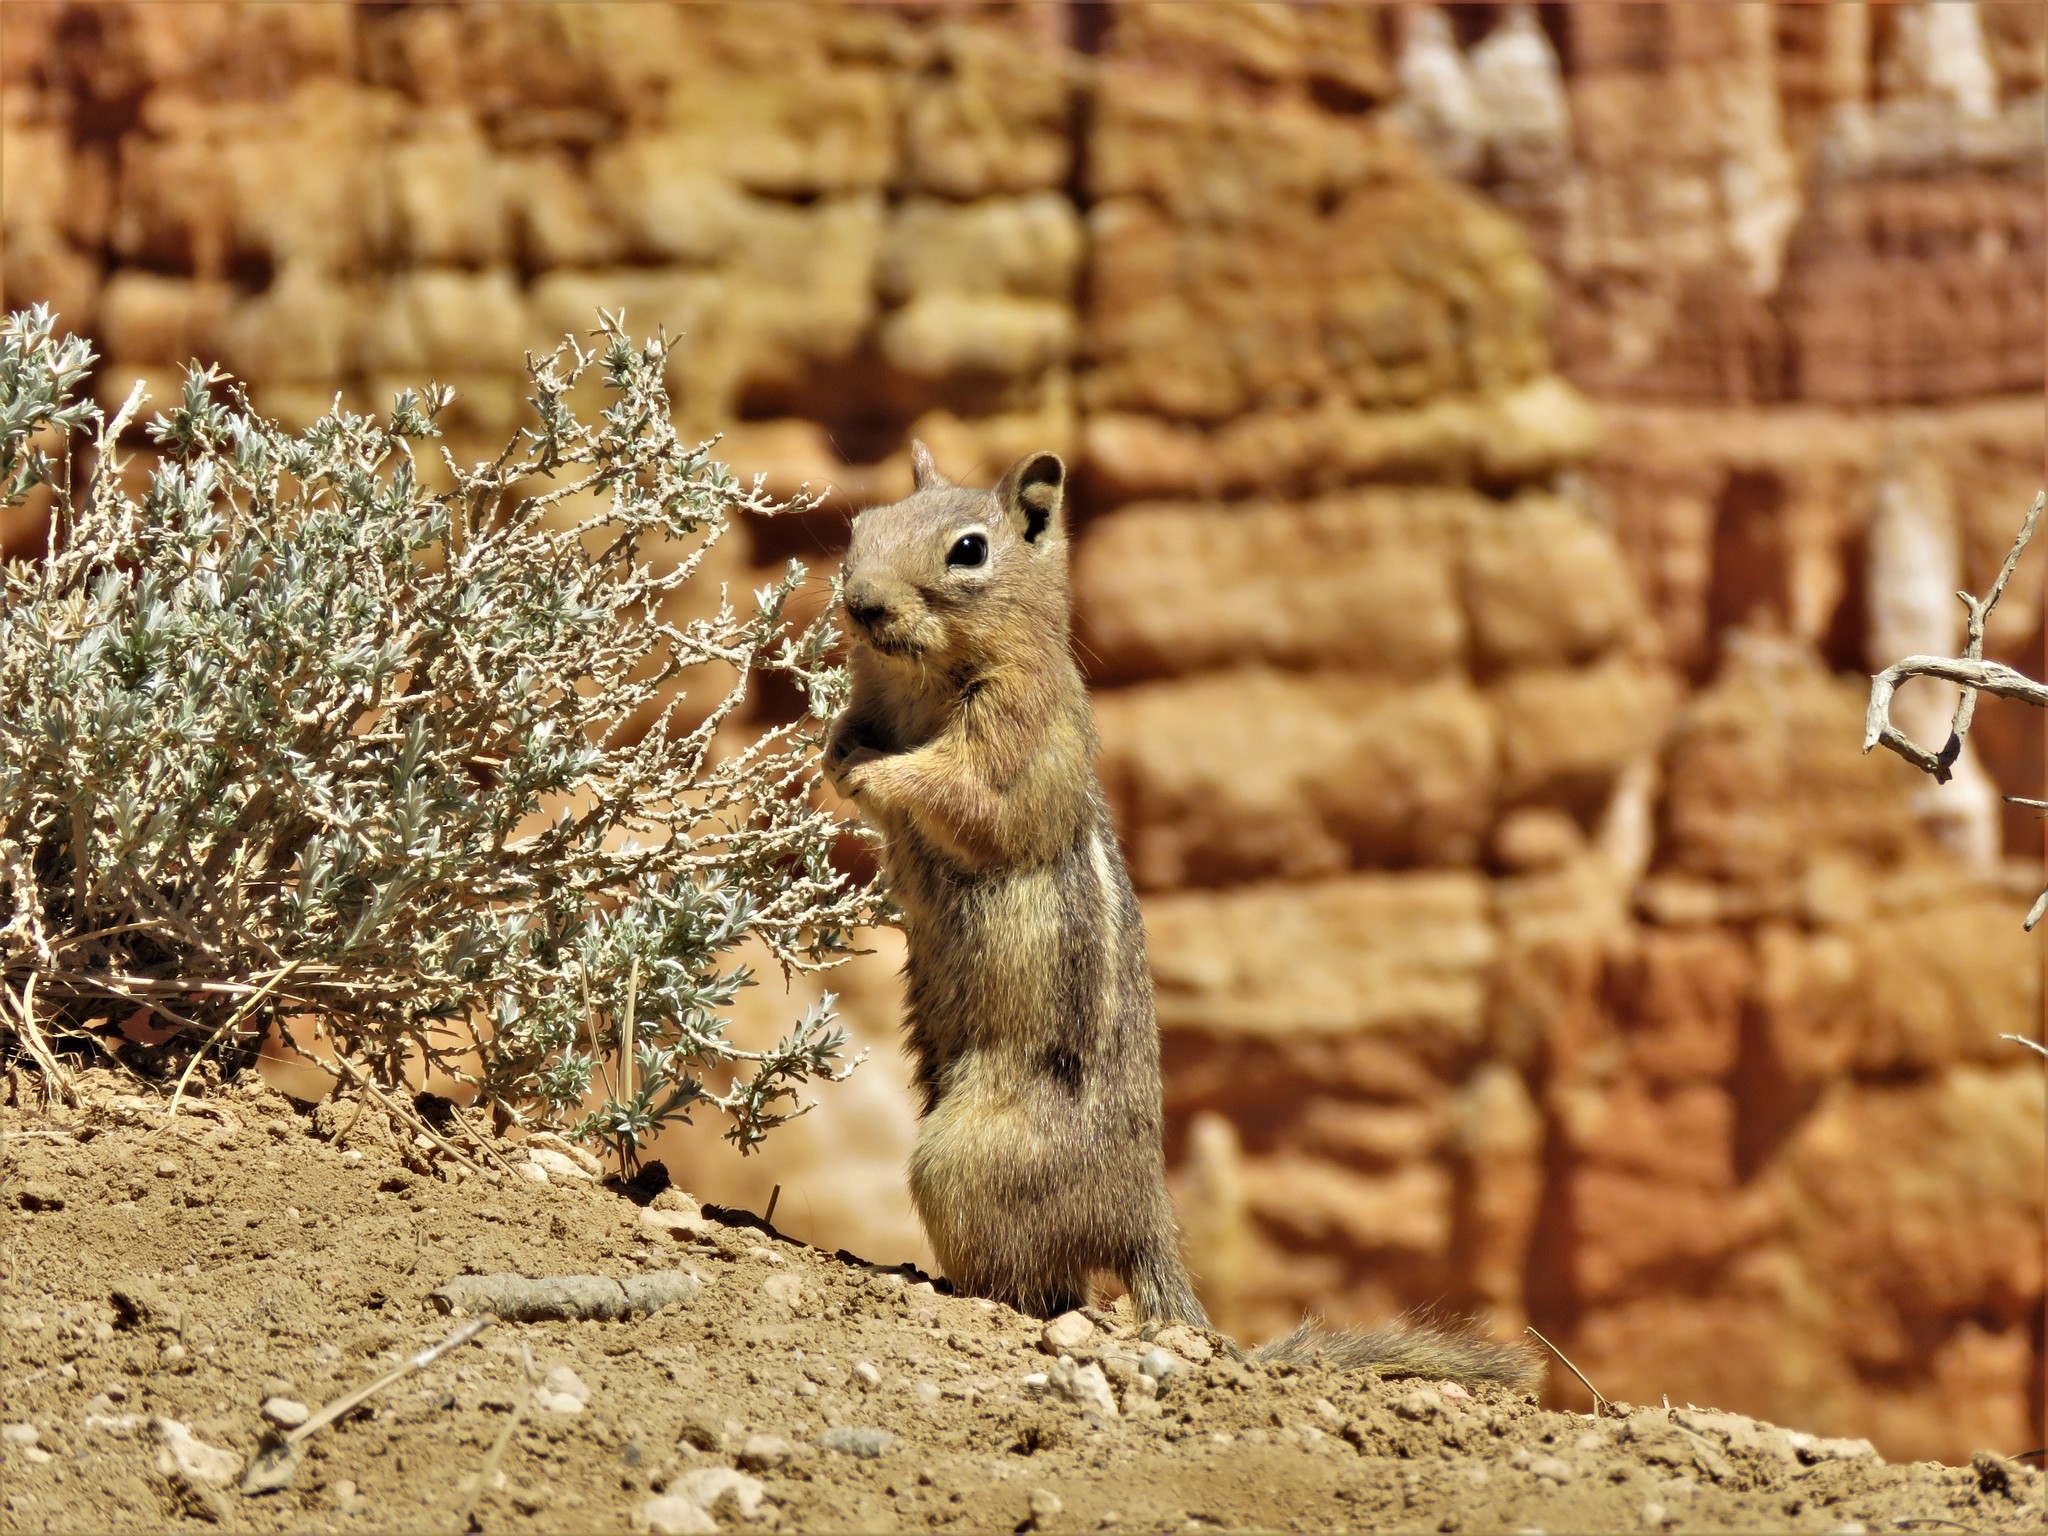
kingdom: Animalia
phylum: Chordata
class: Mammalia
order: Rodentia
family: Sciuridae
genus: Callospermophilus
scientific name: Callospermophilus lateralis
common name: Golden-mantled ground squirrel
